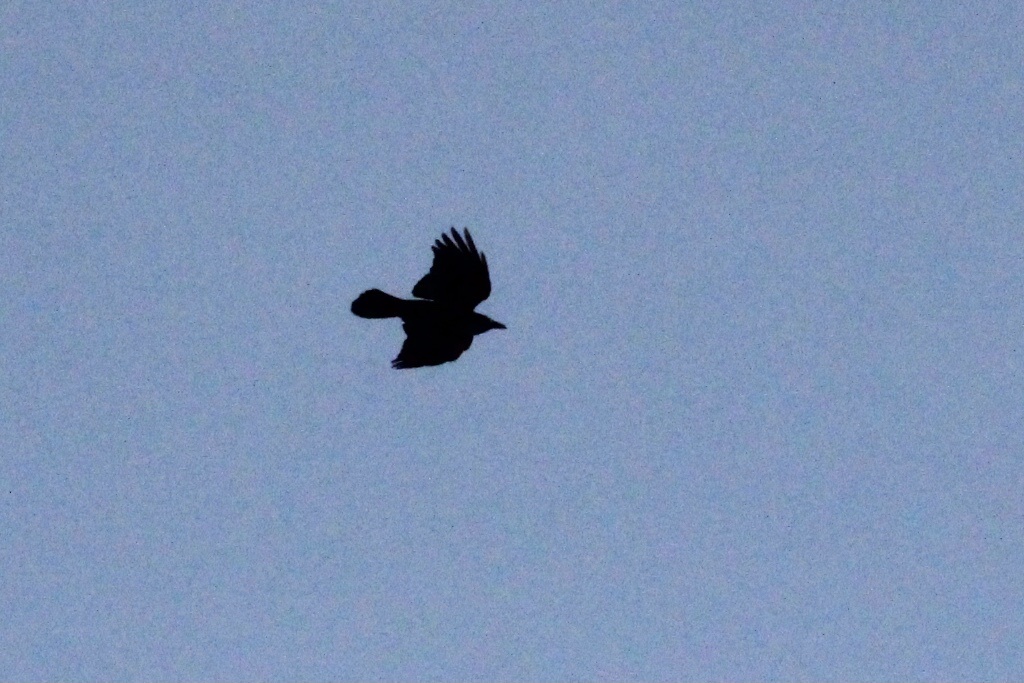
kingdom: Animalia
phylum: Chordata
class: Aves
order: Passeriformes
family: Corvidae
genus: Corvus
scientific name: Corvus brachyrhynchos
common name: American crow
